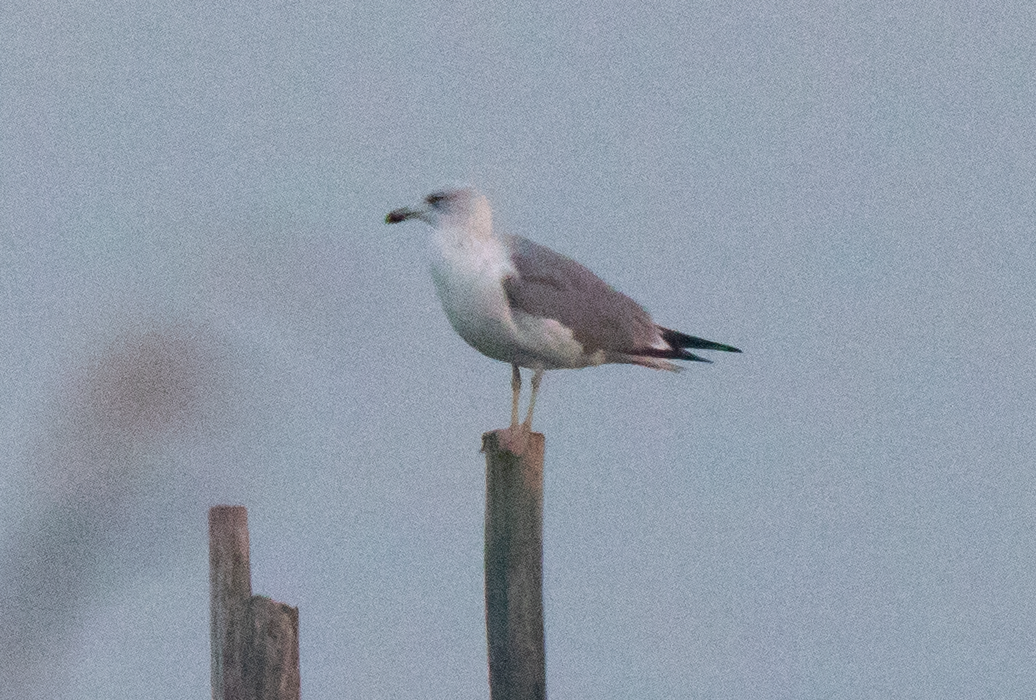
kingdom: Animalia
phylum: Chordata
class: Aves
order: Charadriiformes
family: Laridae
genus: Larus
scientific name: Larus michahellis
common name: Yellow-legged gull
